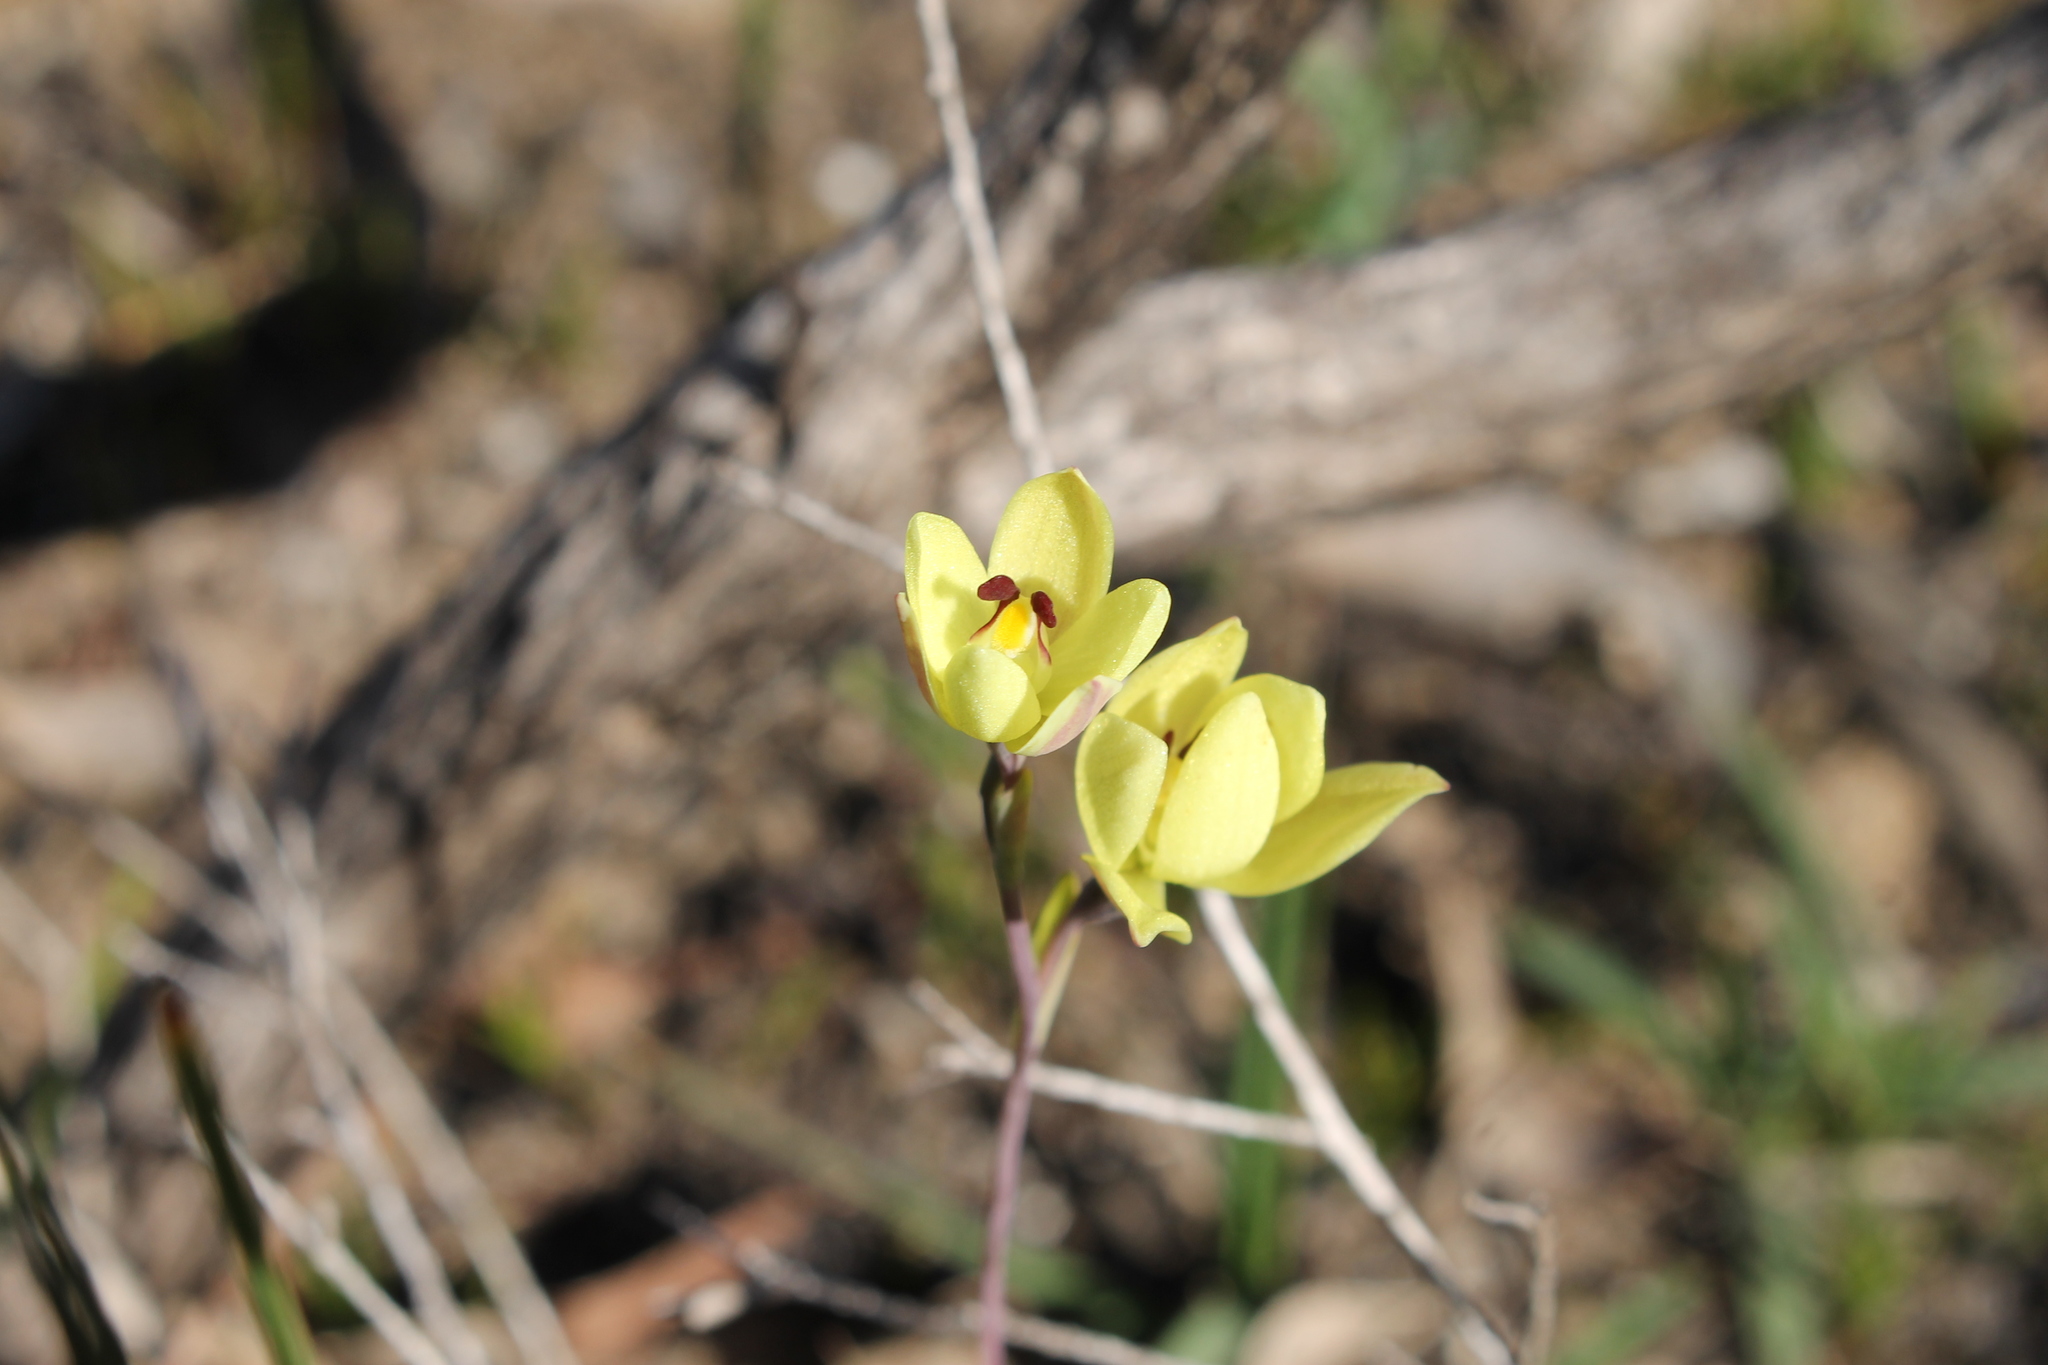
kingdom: Plantae
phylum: Tracheophyta
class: Liliopsida
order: Asparagales
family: Orchidaceae
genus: Thelymitra
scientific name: Thelymitra antennifera
